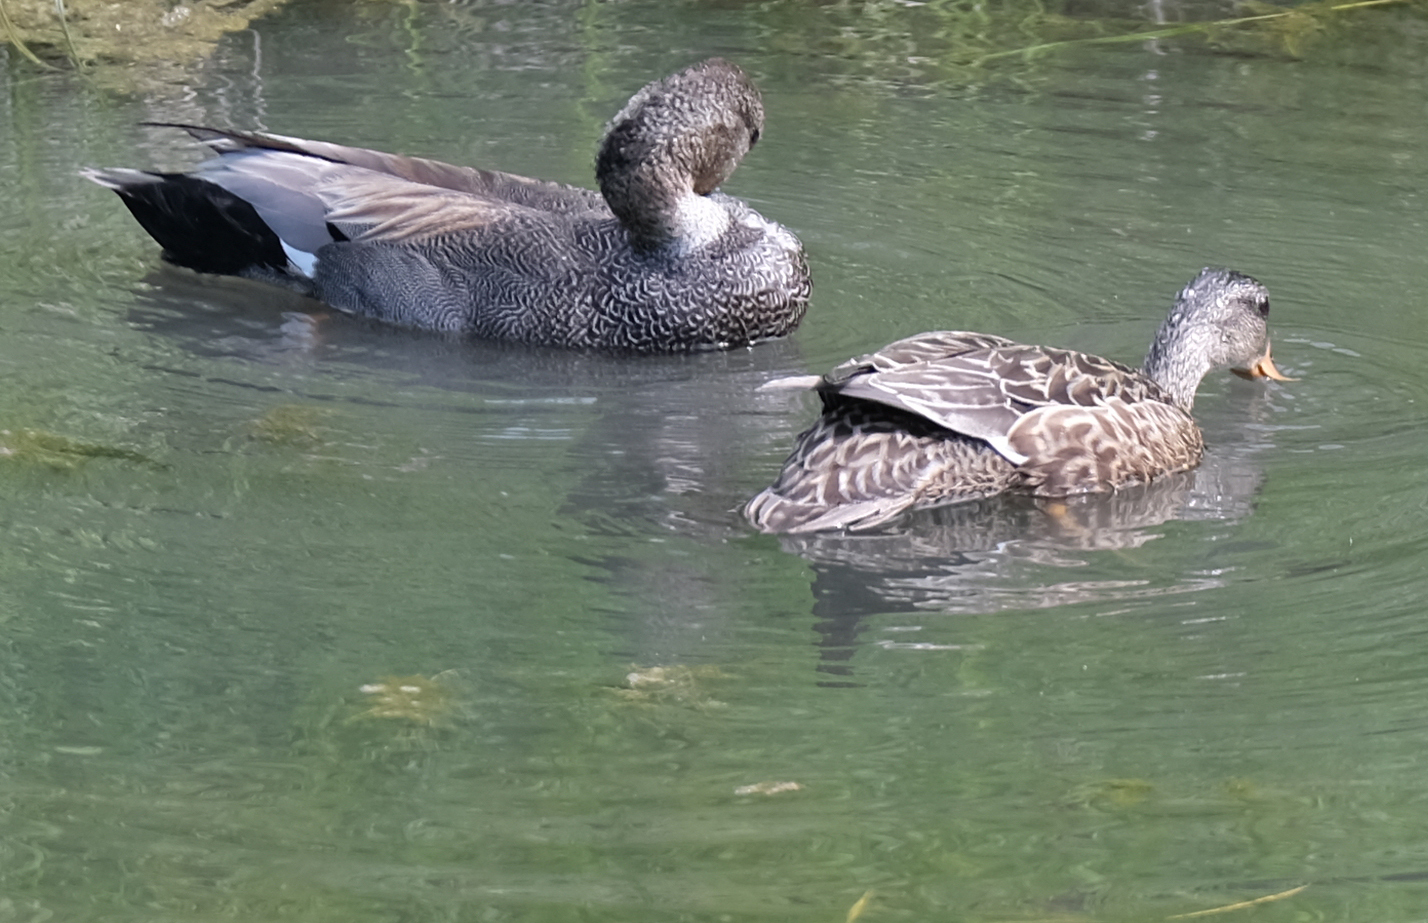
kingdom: Animalia
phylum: Chordata
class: Aves
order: Anseriformes
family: Anatidae
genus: Mareca
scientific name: Mareca strepera
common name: Gadwall
